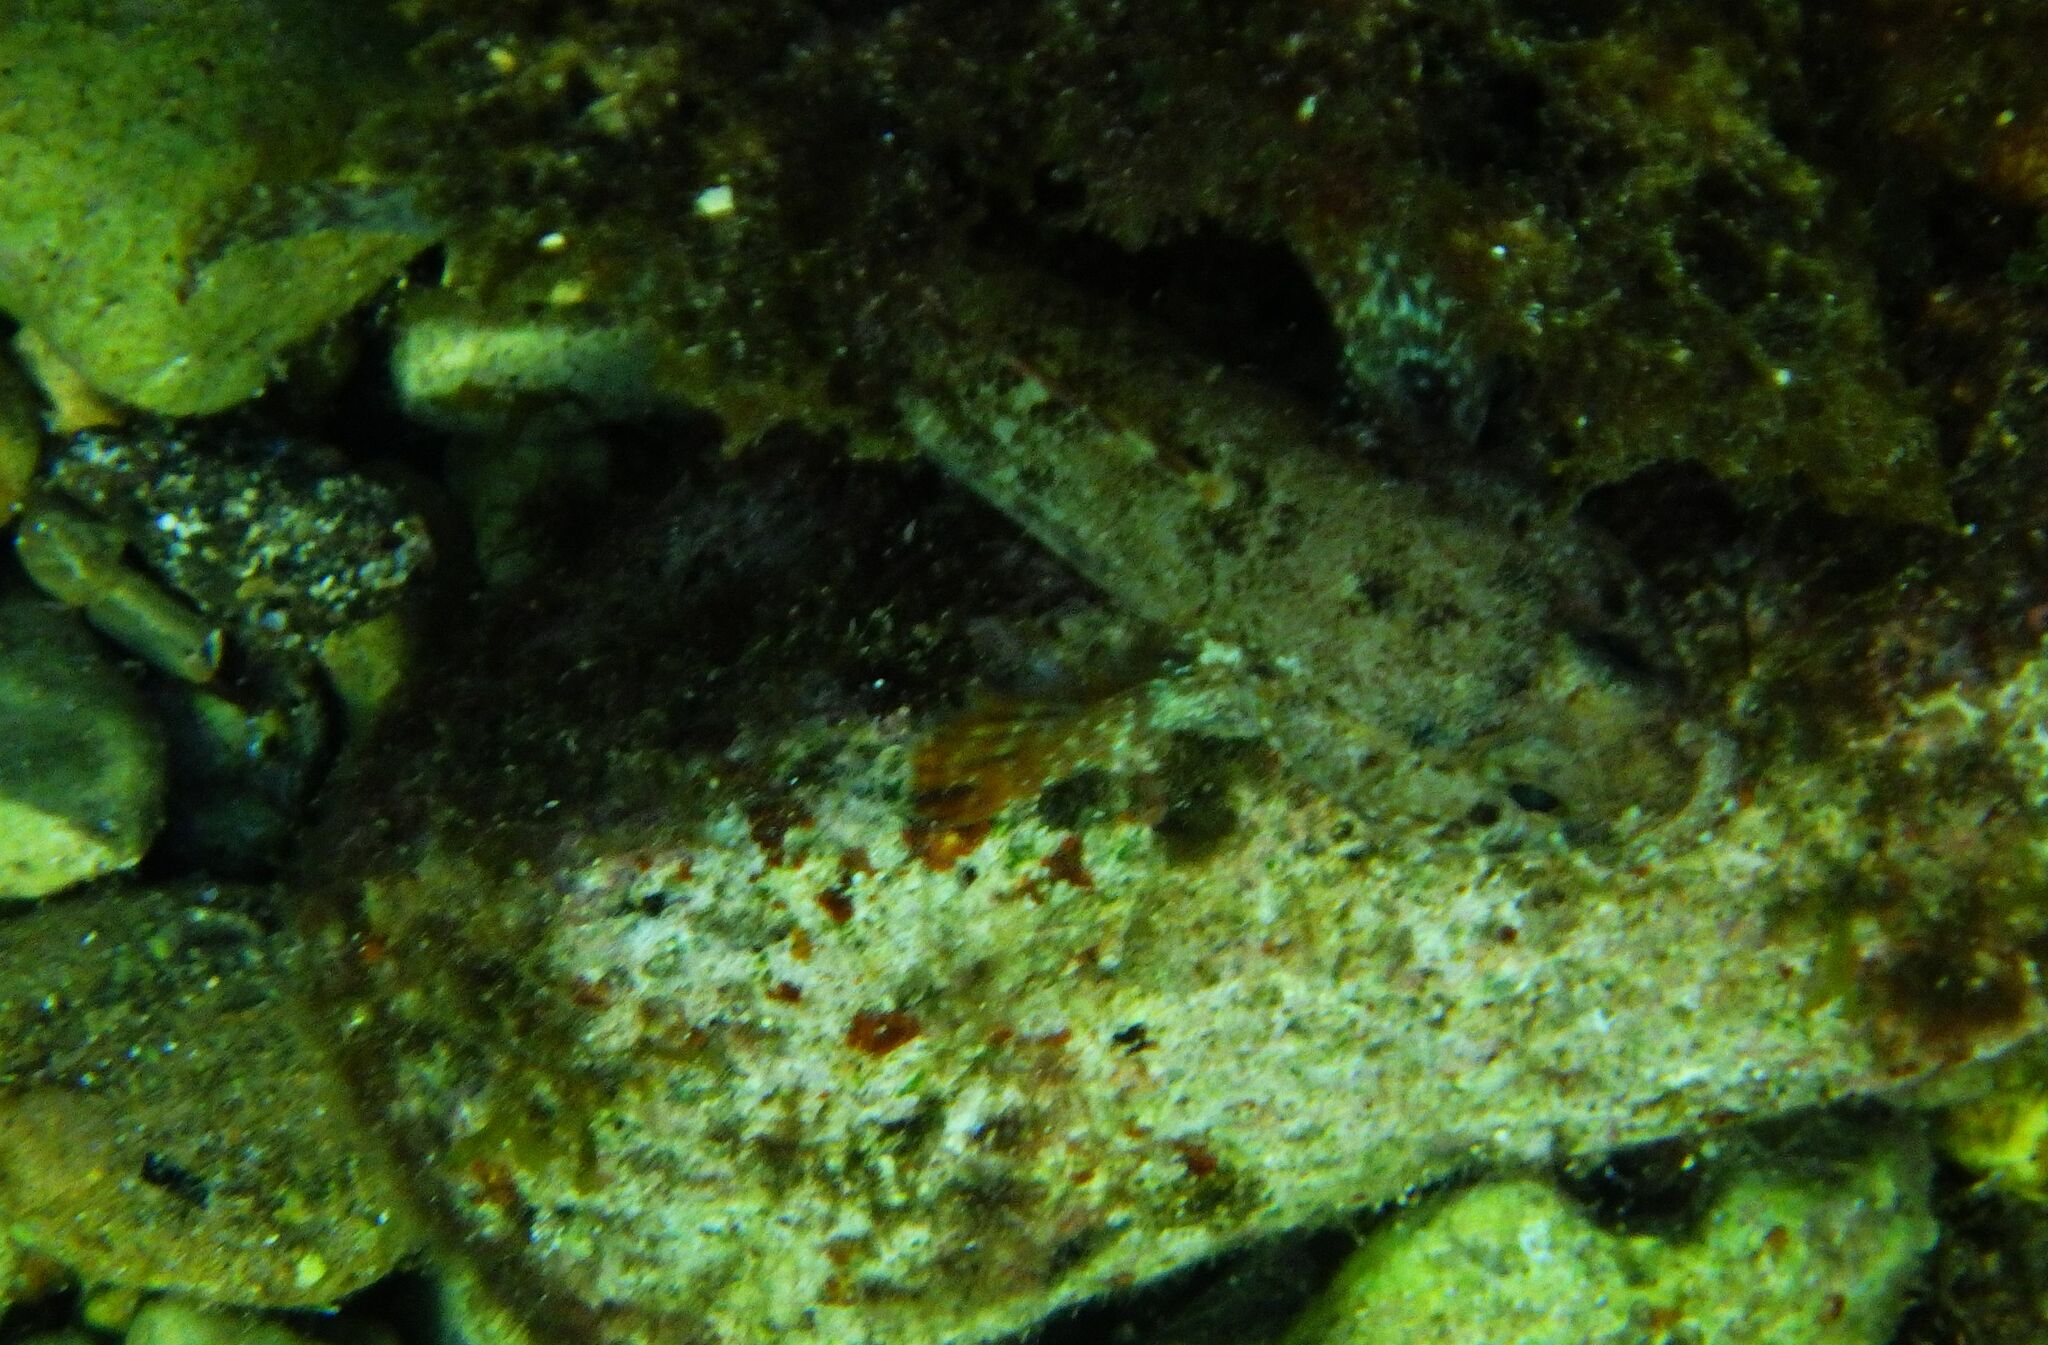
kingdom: Animalia
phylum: Chordata
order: Perciformes
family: Gobiidae
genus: Gobius
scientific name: Gobius paganellus
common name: Rock goby
